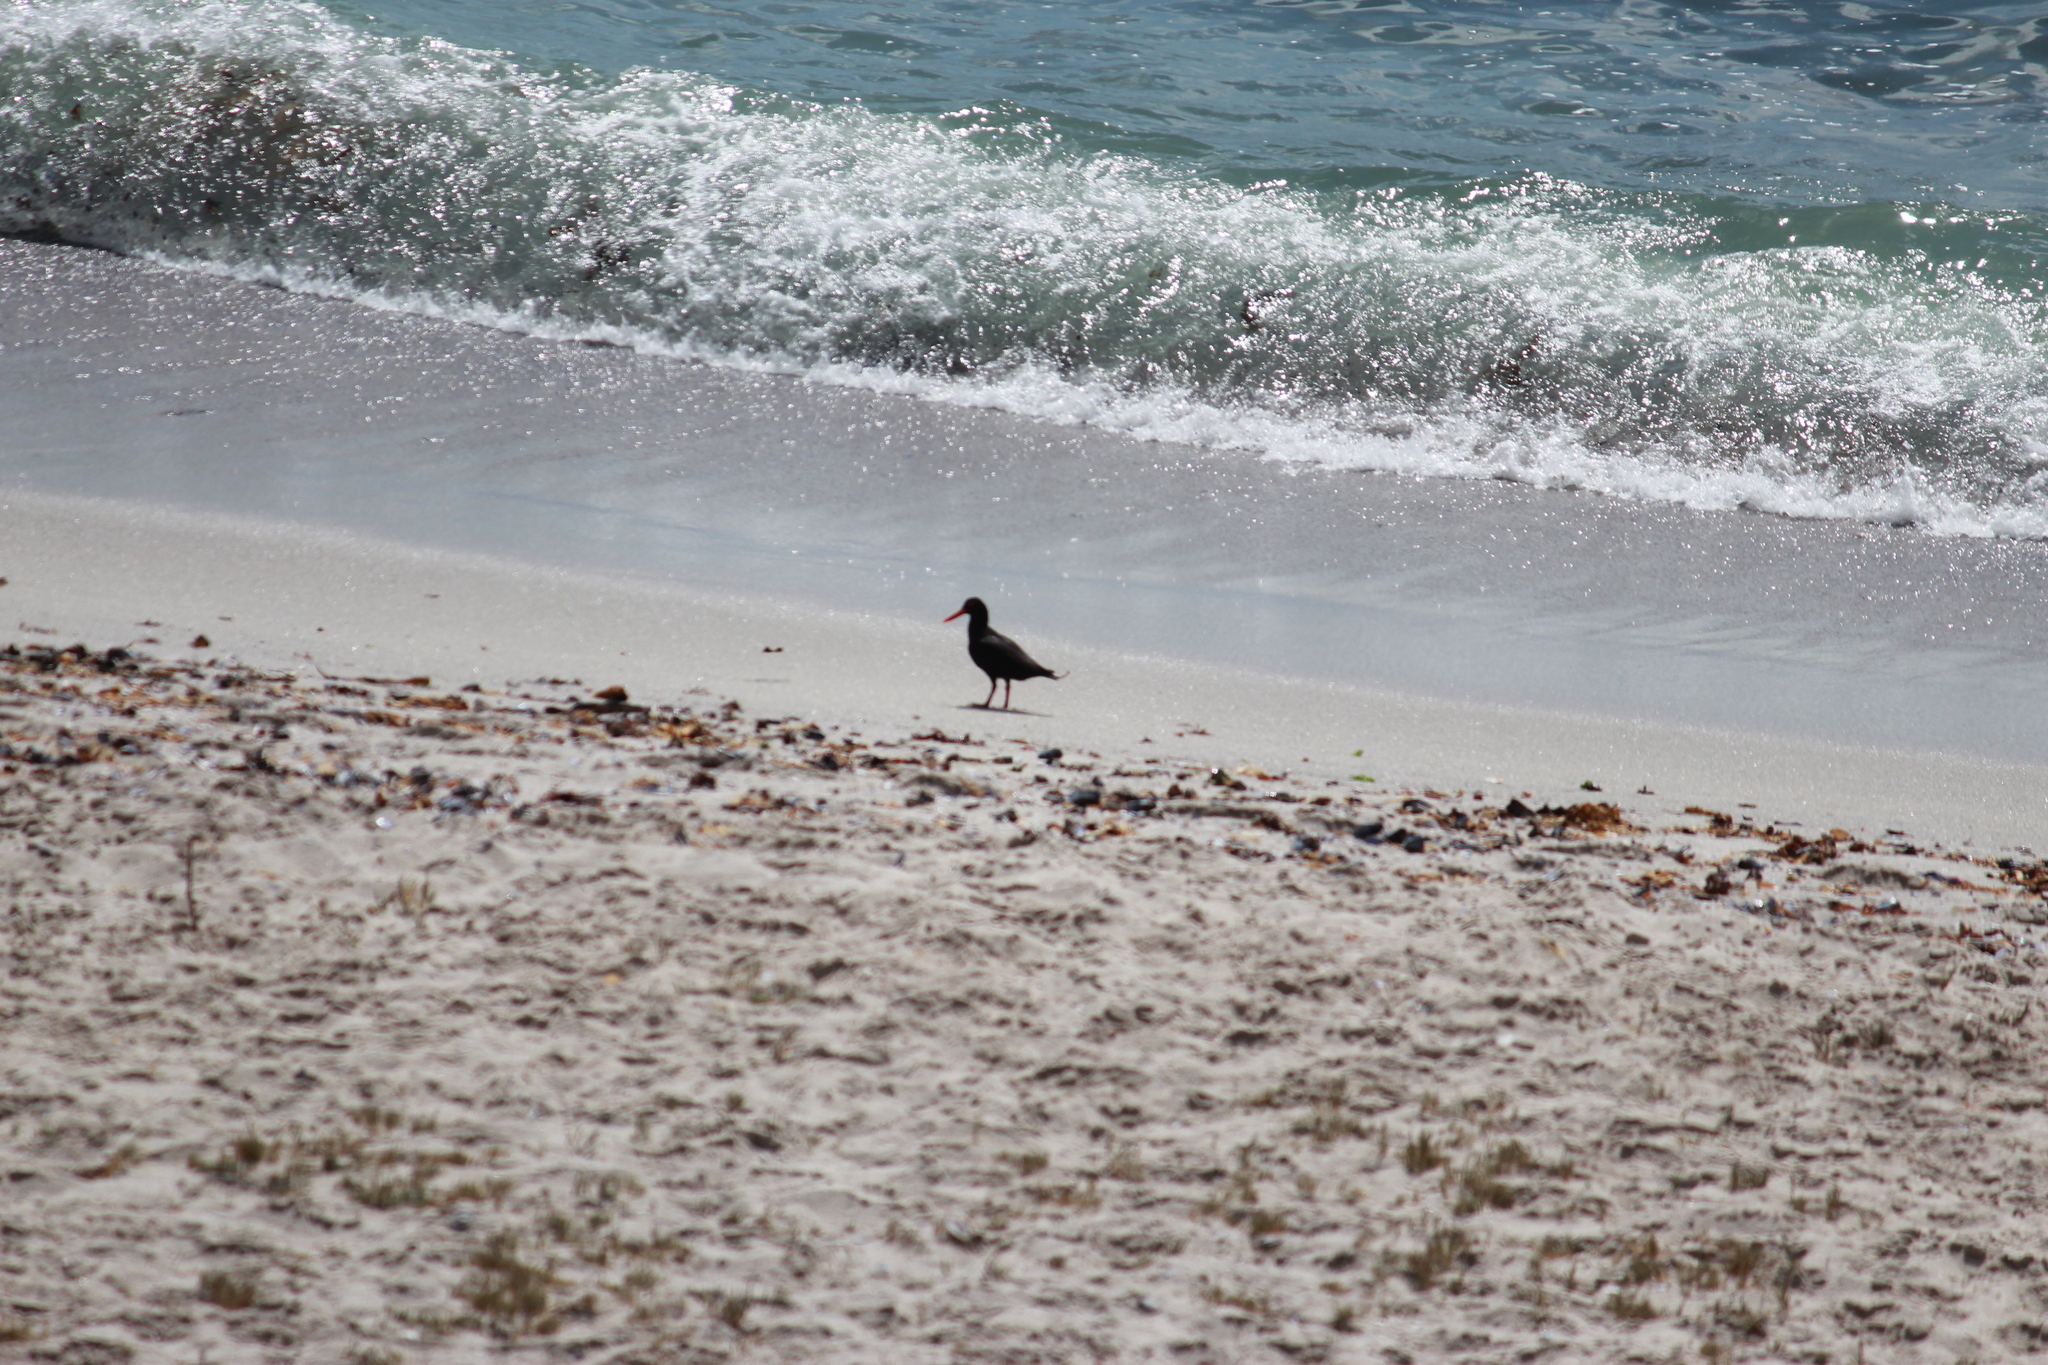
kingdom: Animalia
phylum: Chordata
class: Aves
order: Charadriiformes
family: Haematopodidae
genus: Haematopus
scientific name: Haematopus moquini
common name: African oystercatcher
